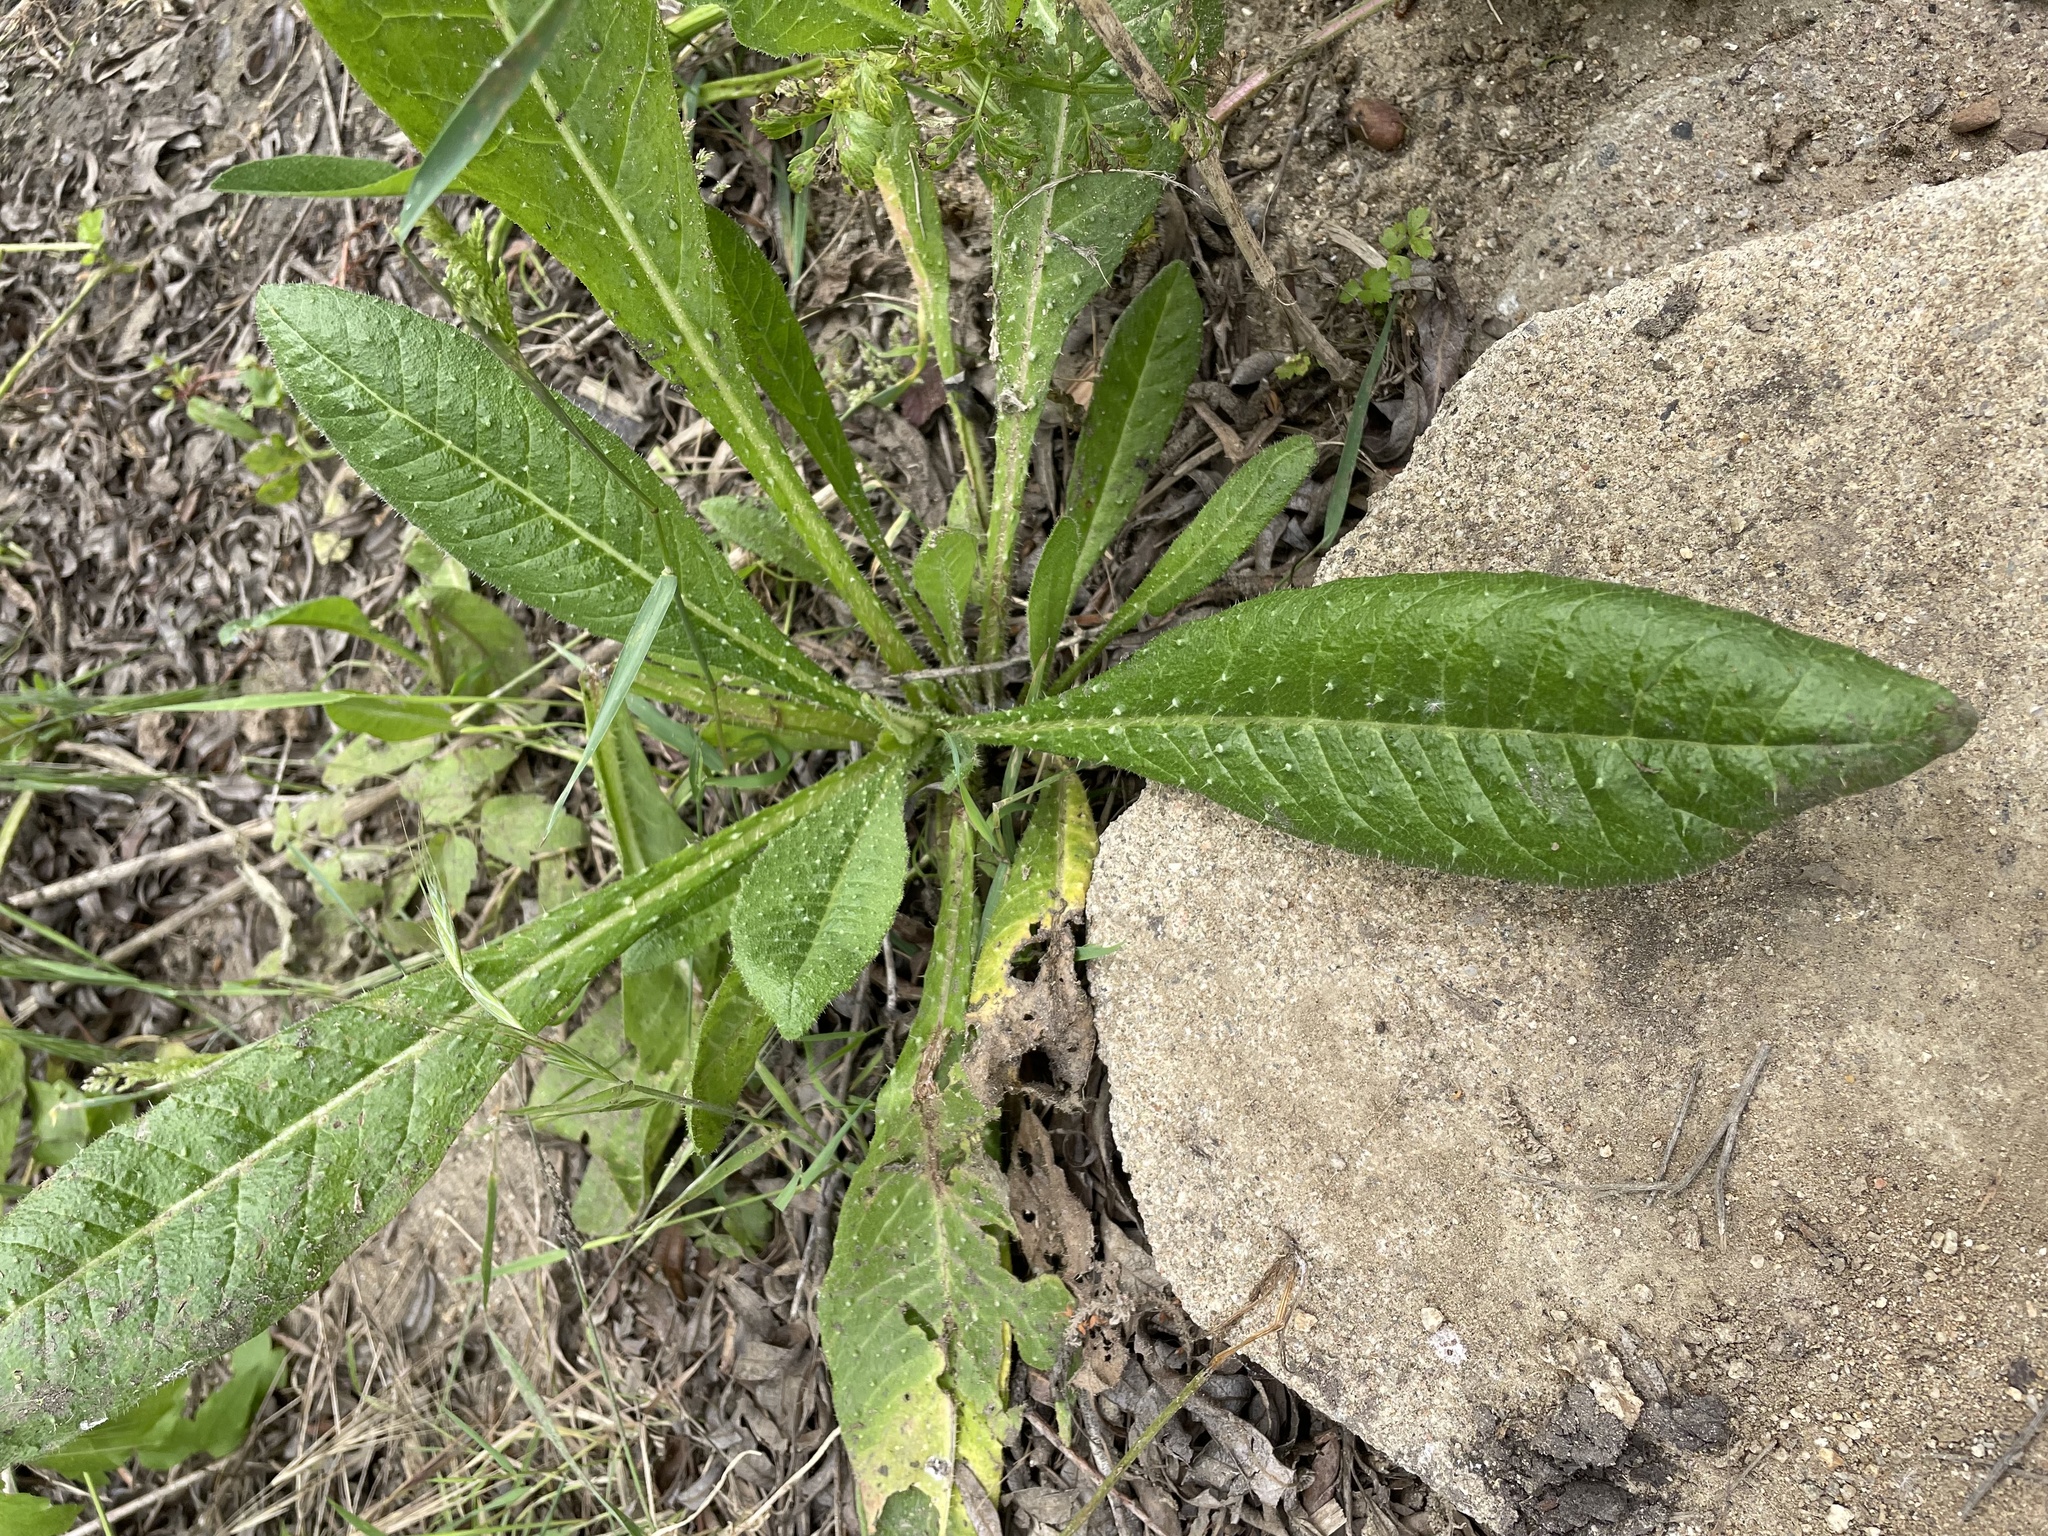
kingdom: Plantae
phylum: Tracheophyta
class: Magnoliopsida
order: Asterales
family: Asteraceae
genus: Helminthotheca
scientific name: Helminthotheca echioides
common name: Ox-tongue
